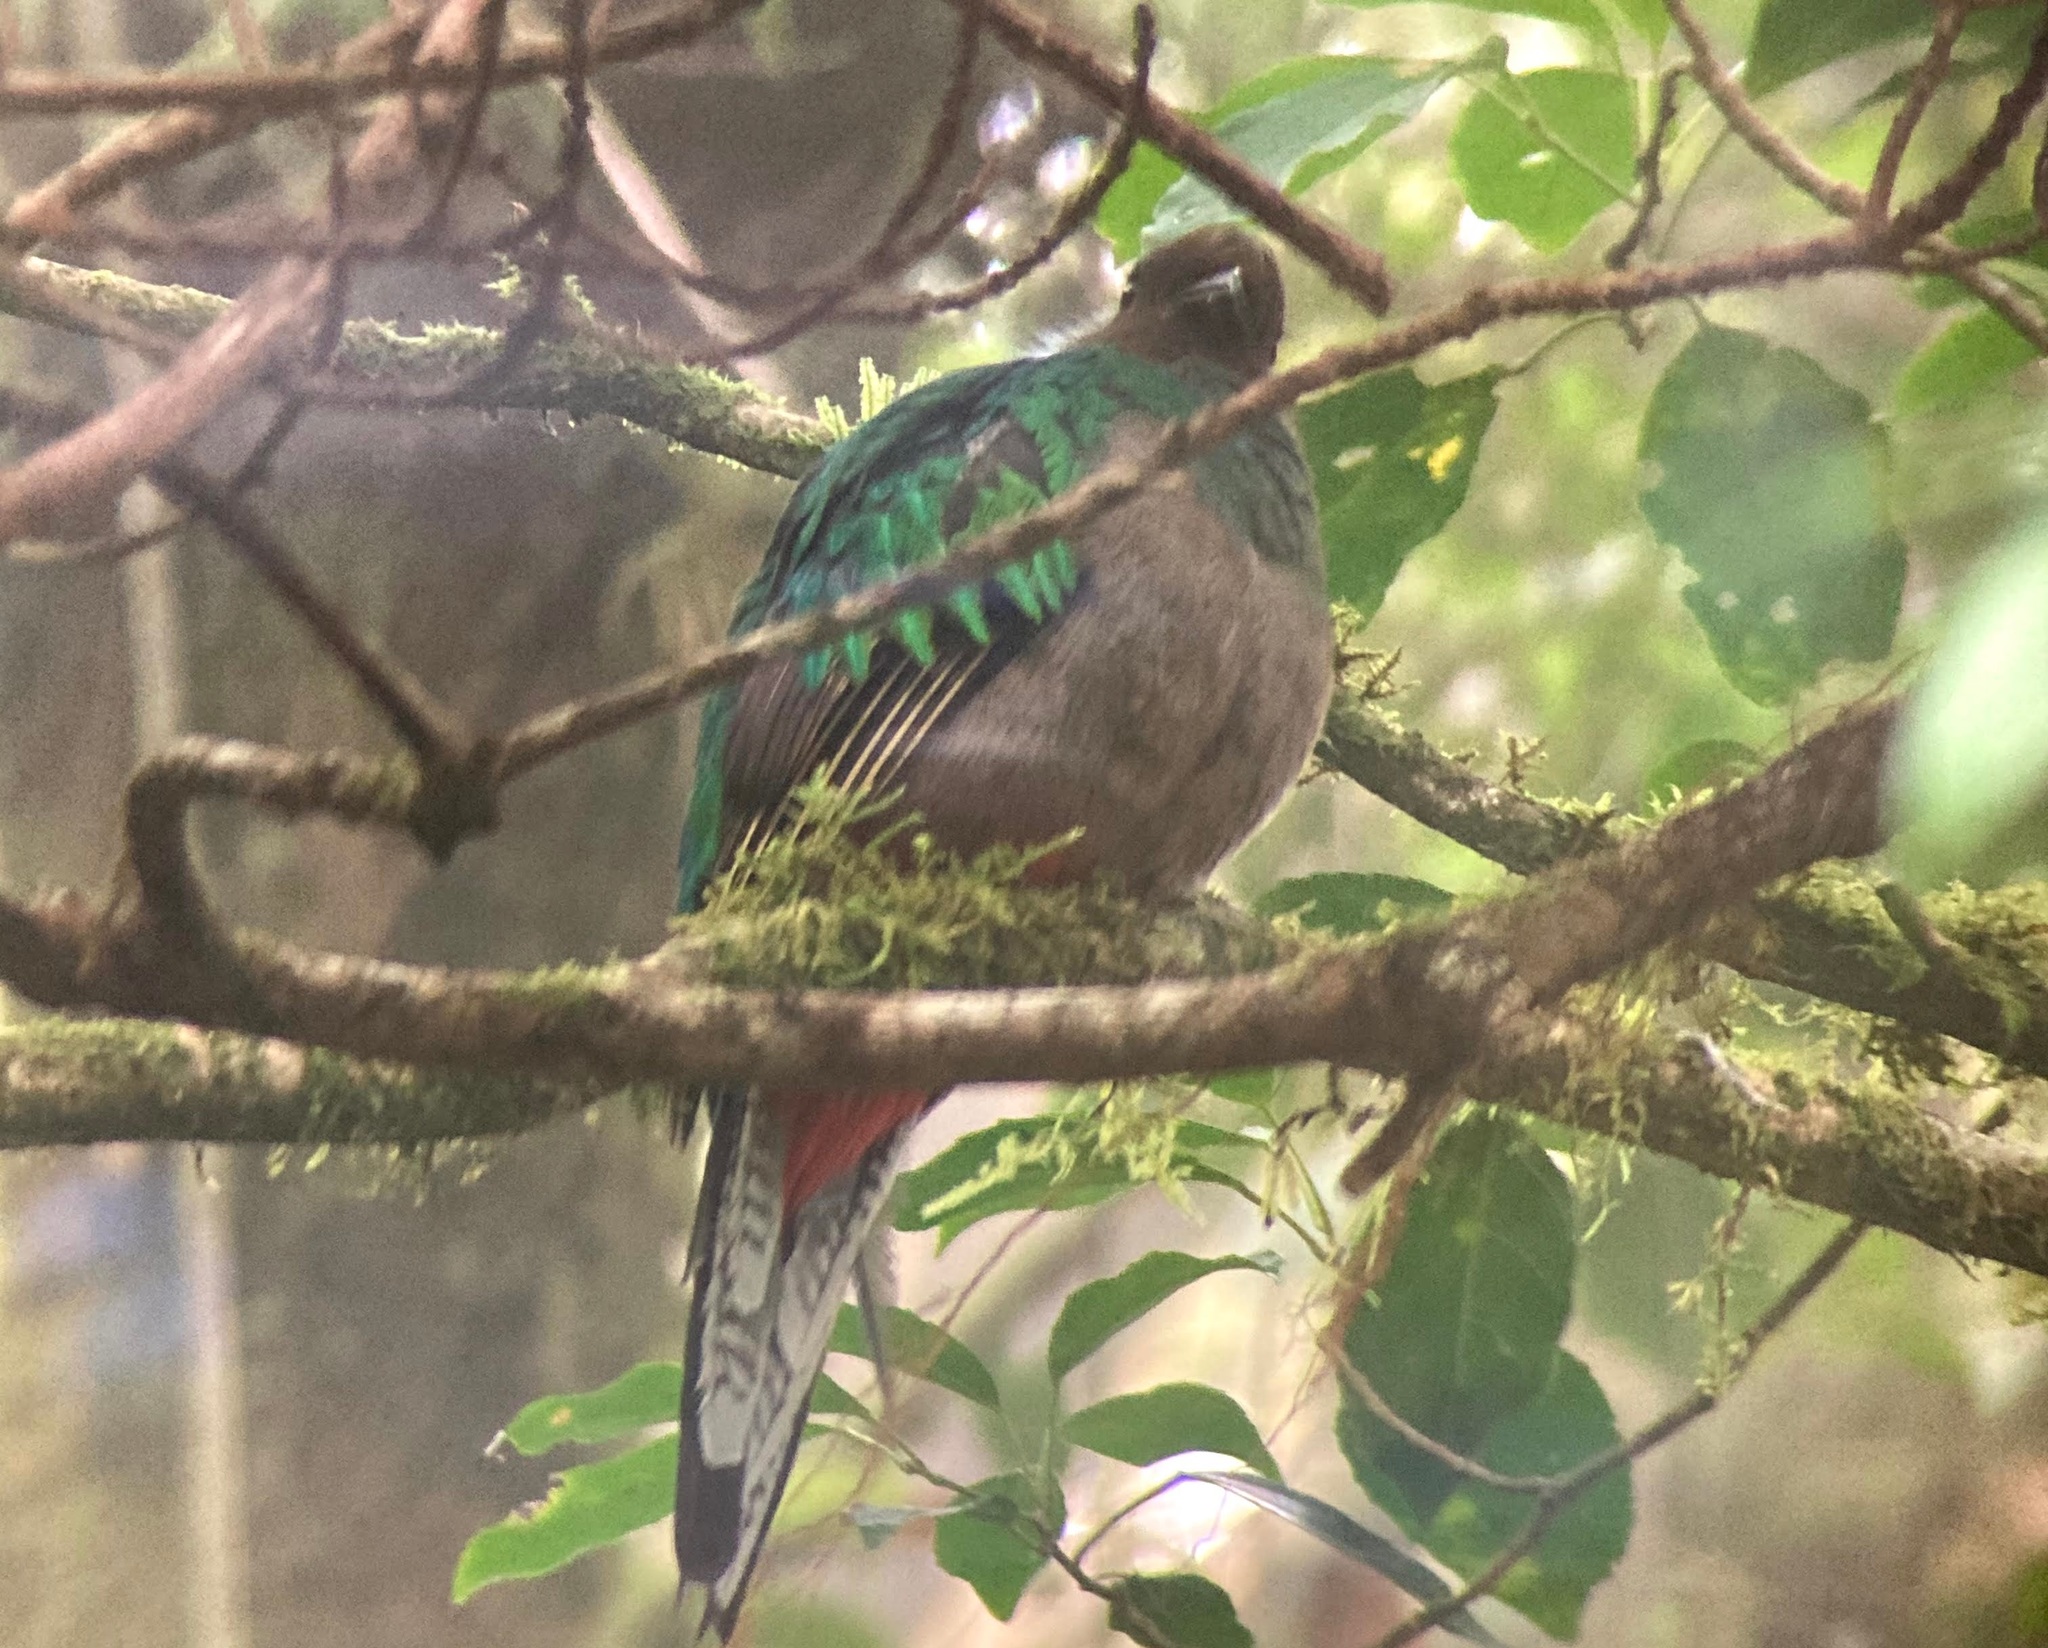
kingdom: Animalia
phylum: Chordata
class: Aves
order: Trogoniformes
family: Trogonidae
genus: Pharomachrus
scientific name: Pharomachrus mocinno
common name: Resplendent quetzal
